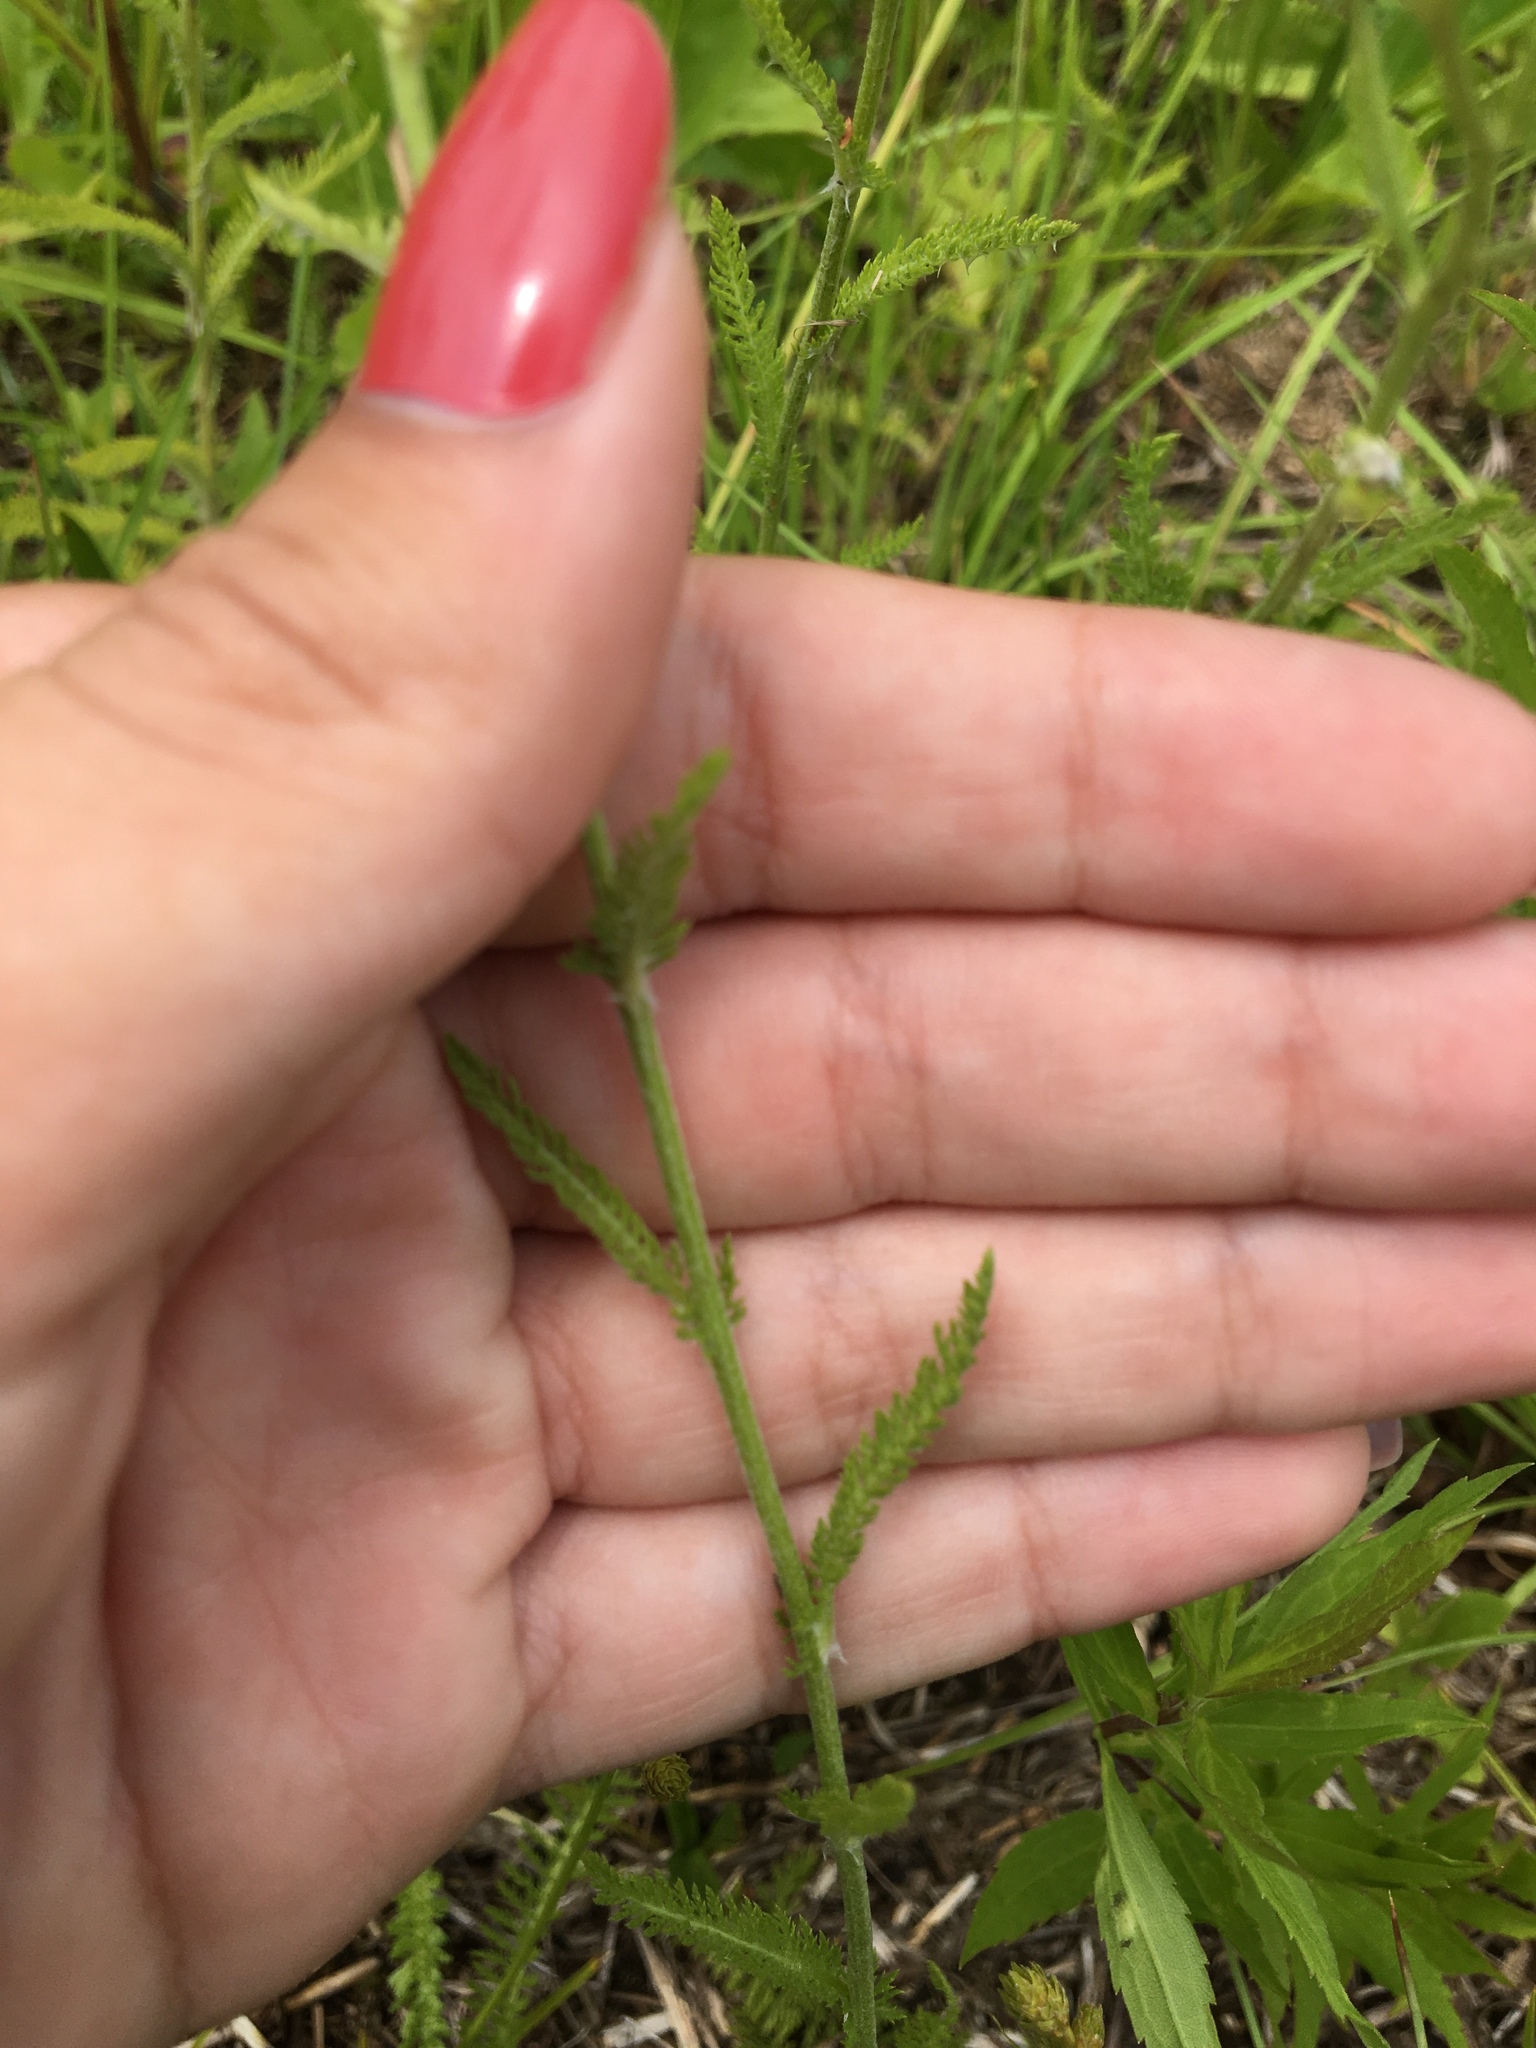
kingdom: Plantae
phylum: Tracheophyta
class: Magnoliopsida
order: Asterales
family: Asteraceae
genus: Achillea
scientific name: Achillea millefolium
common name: Yarrow
